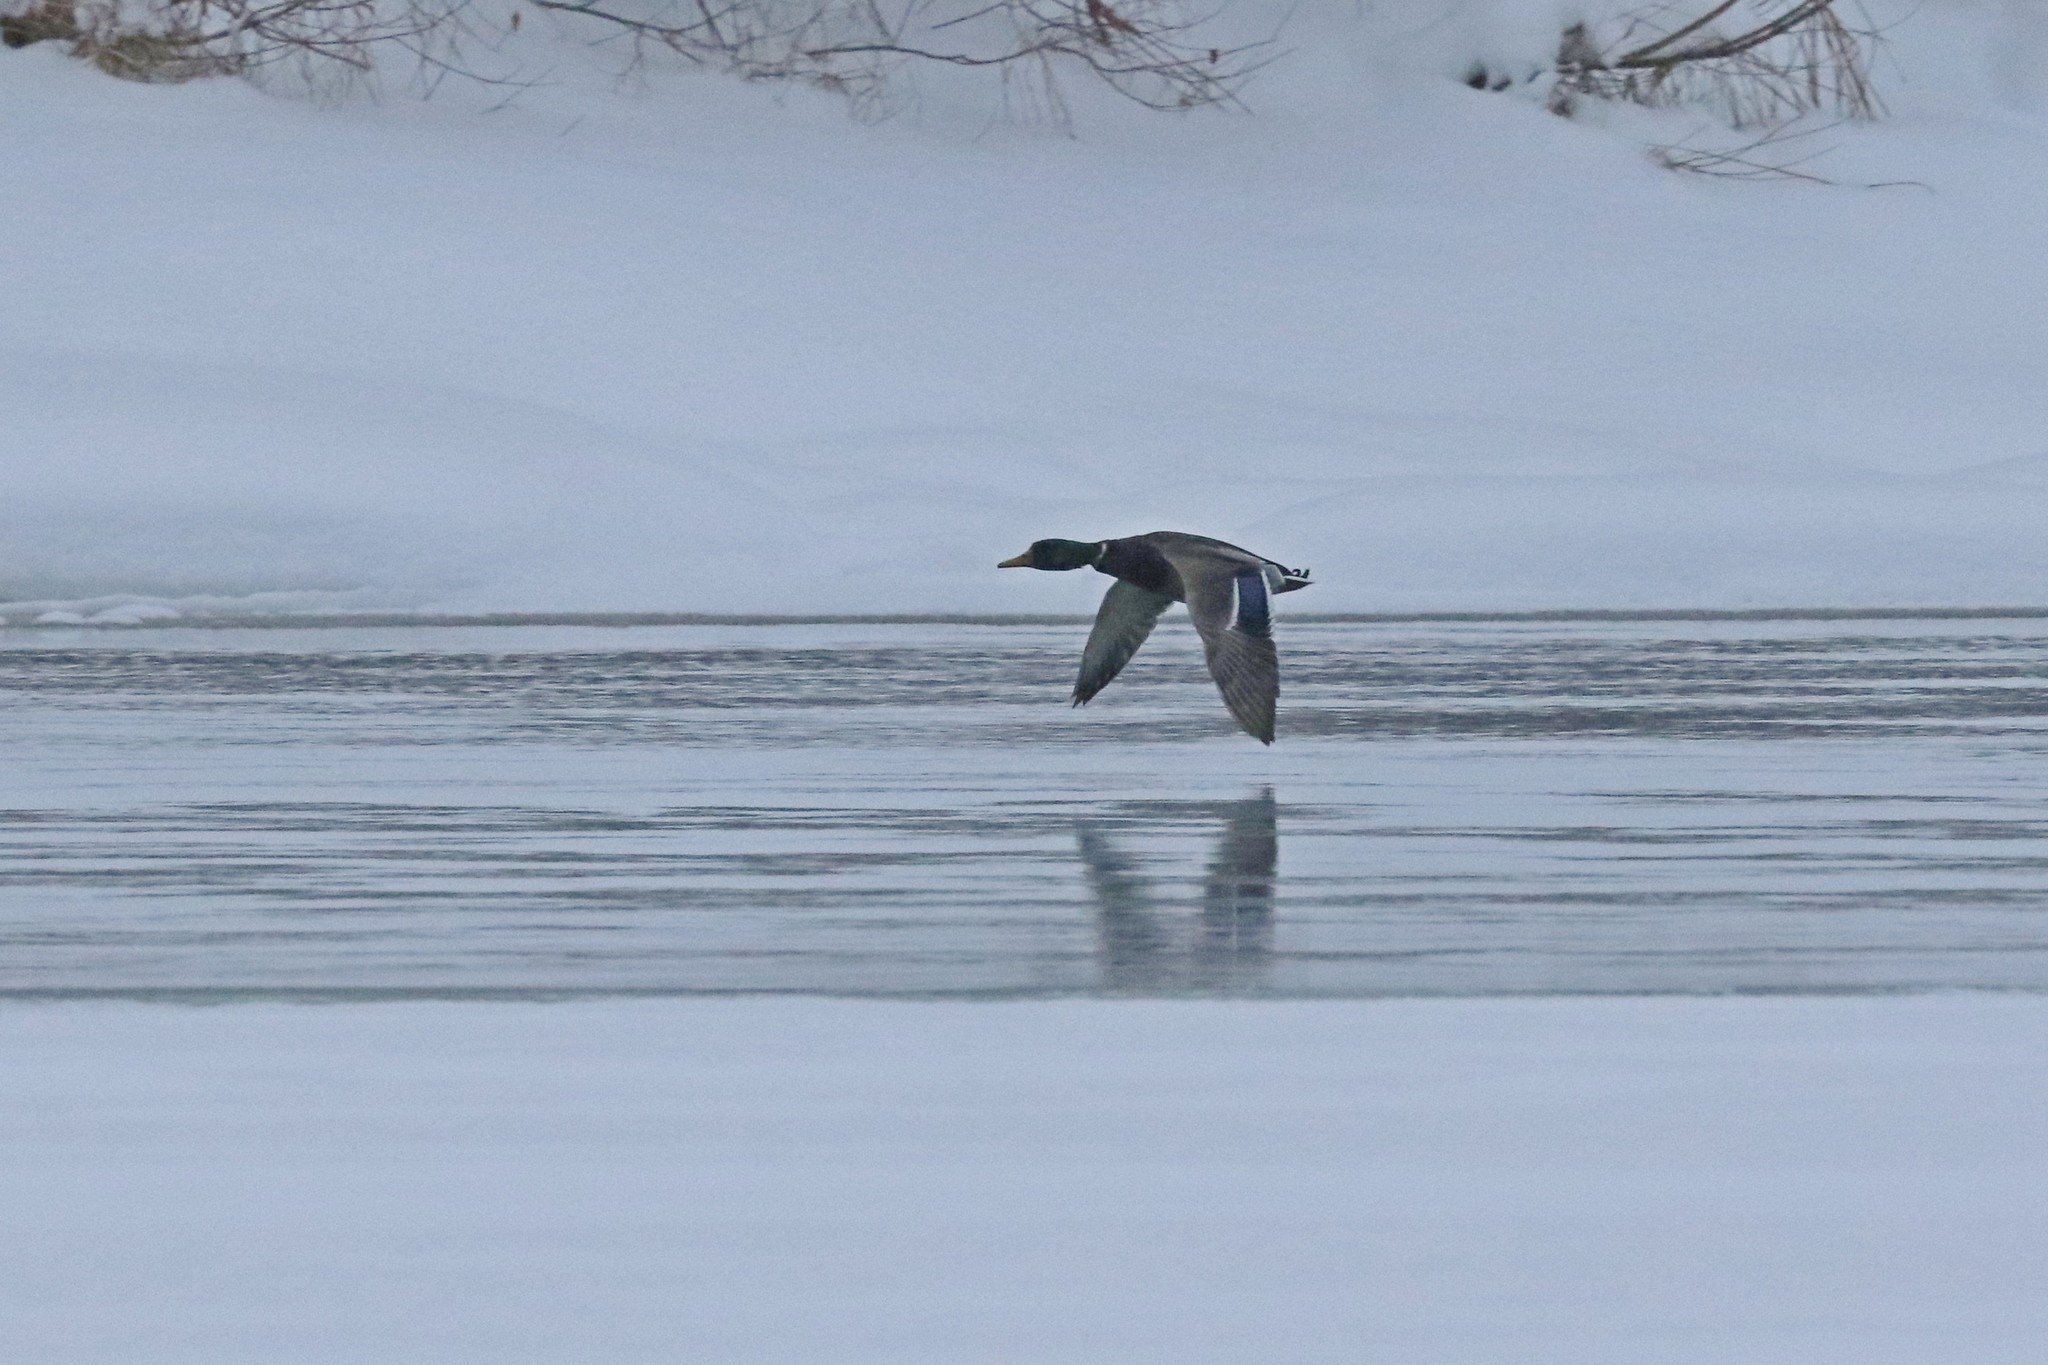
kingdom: Animalia
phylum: Chordata
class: Aves
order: Anseriformes
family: Anatidae
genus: Anas
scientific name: Anas platyrhynchos
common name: Mallard
